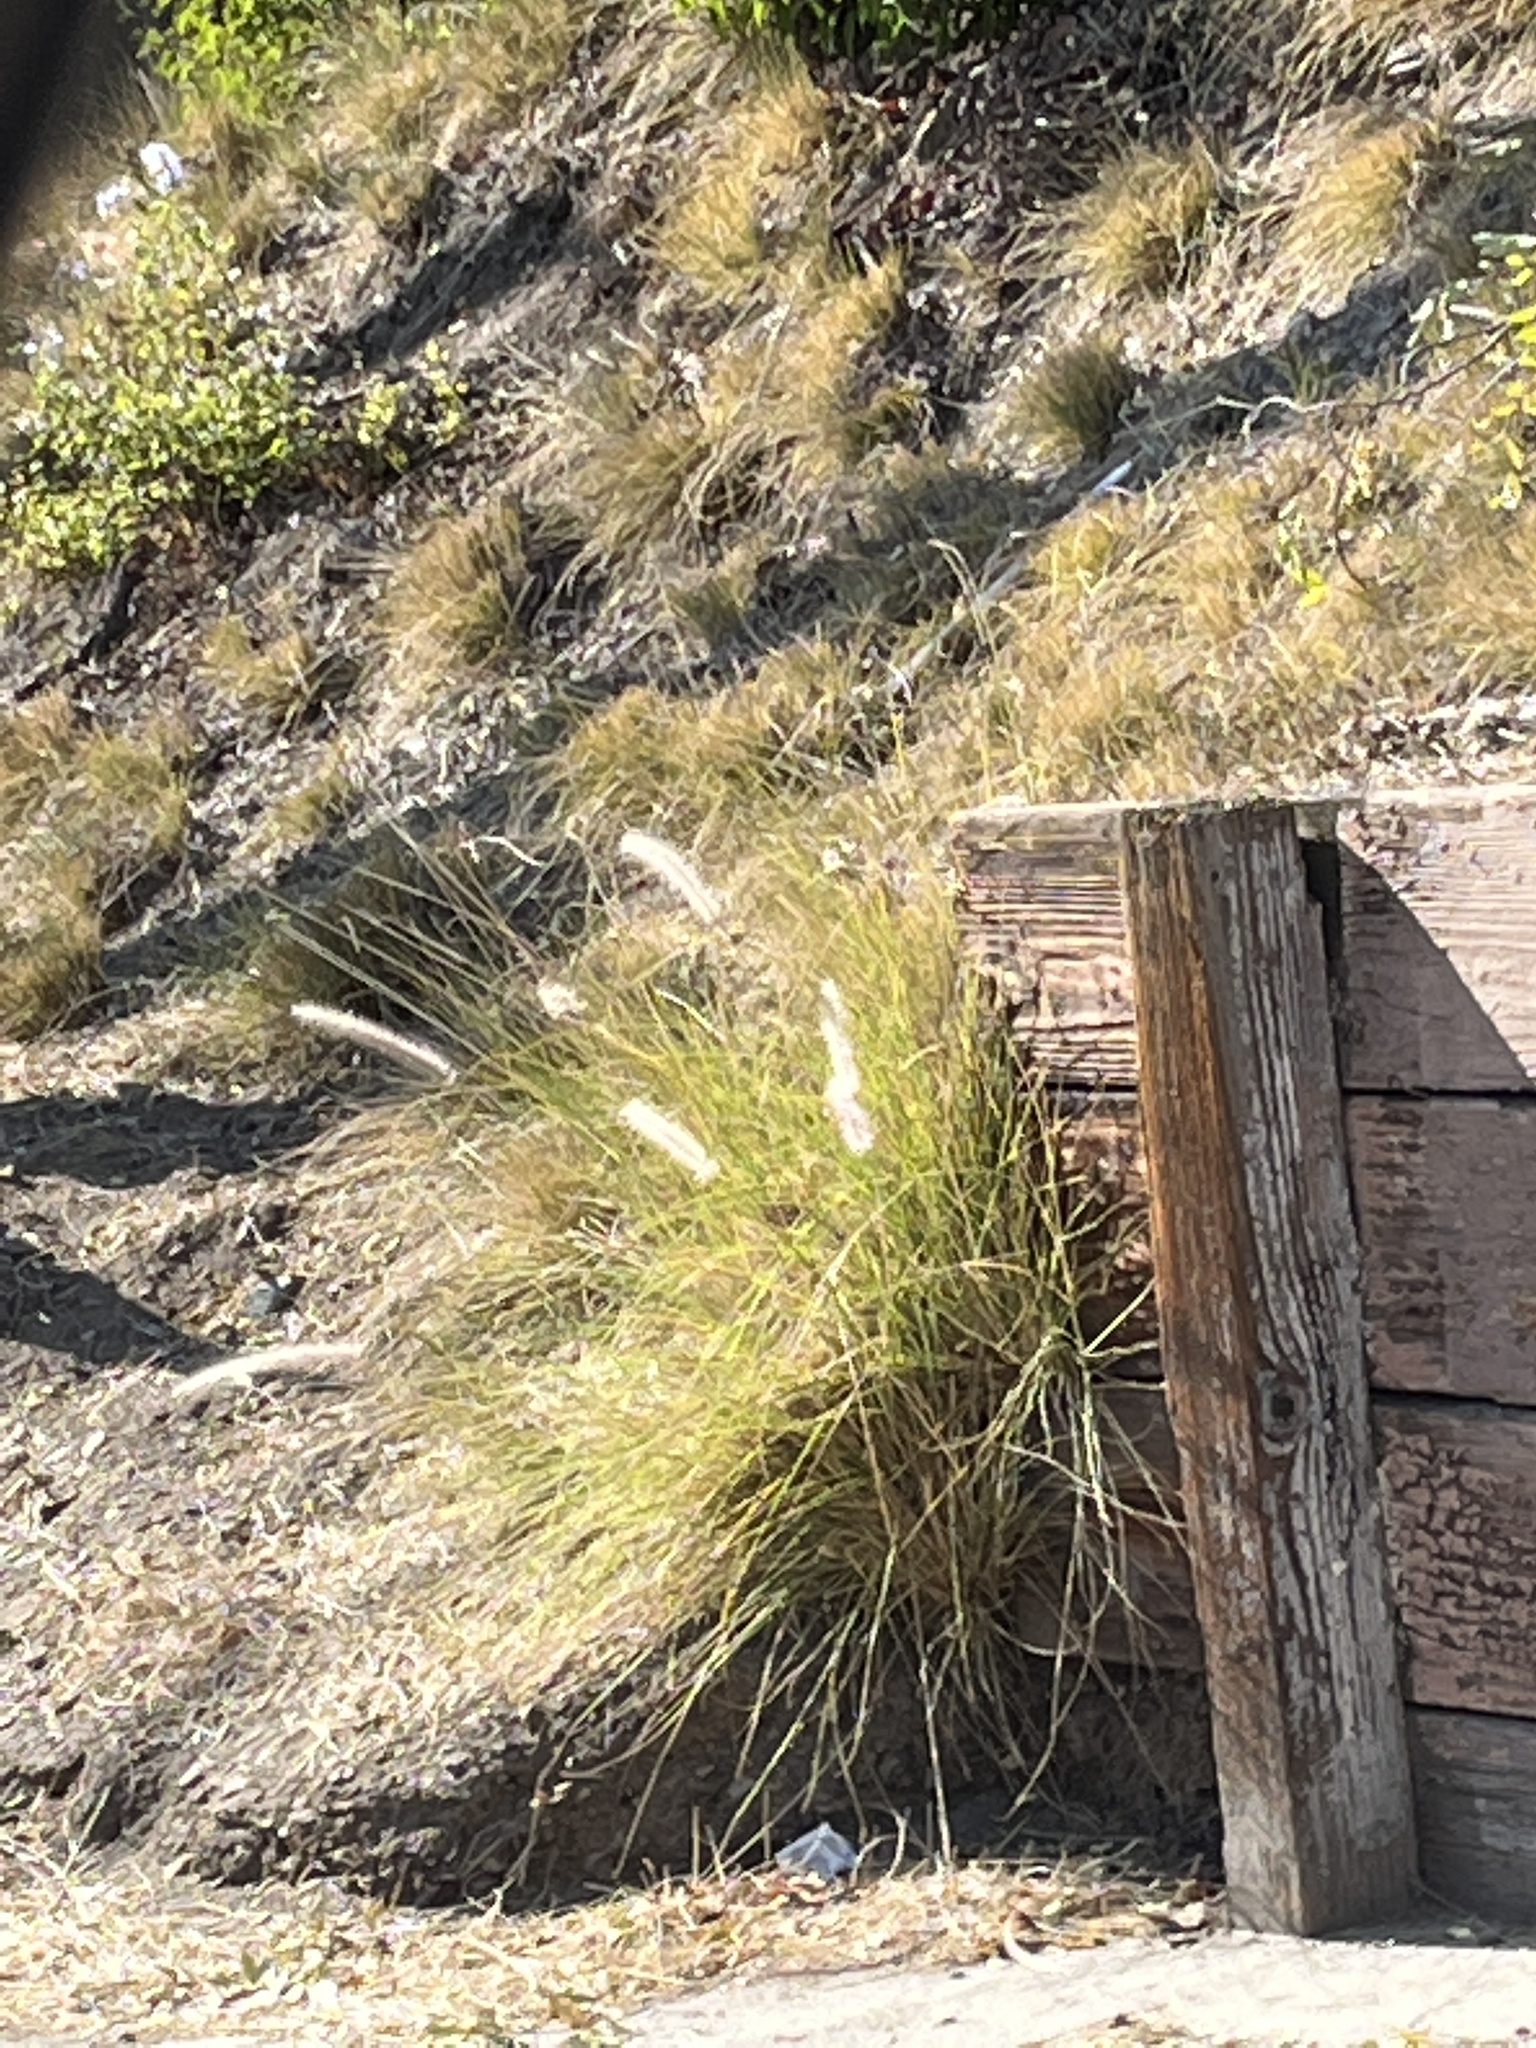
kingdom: Plantae
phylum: Tracheophyta
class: Liliopsida
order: Poales
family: Poaceae
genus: Cenchrus
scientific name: Cenchrus setaceus
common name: Crimson fountaingrass
